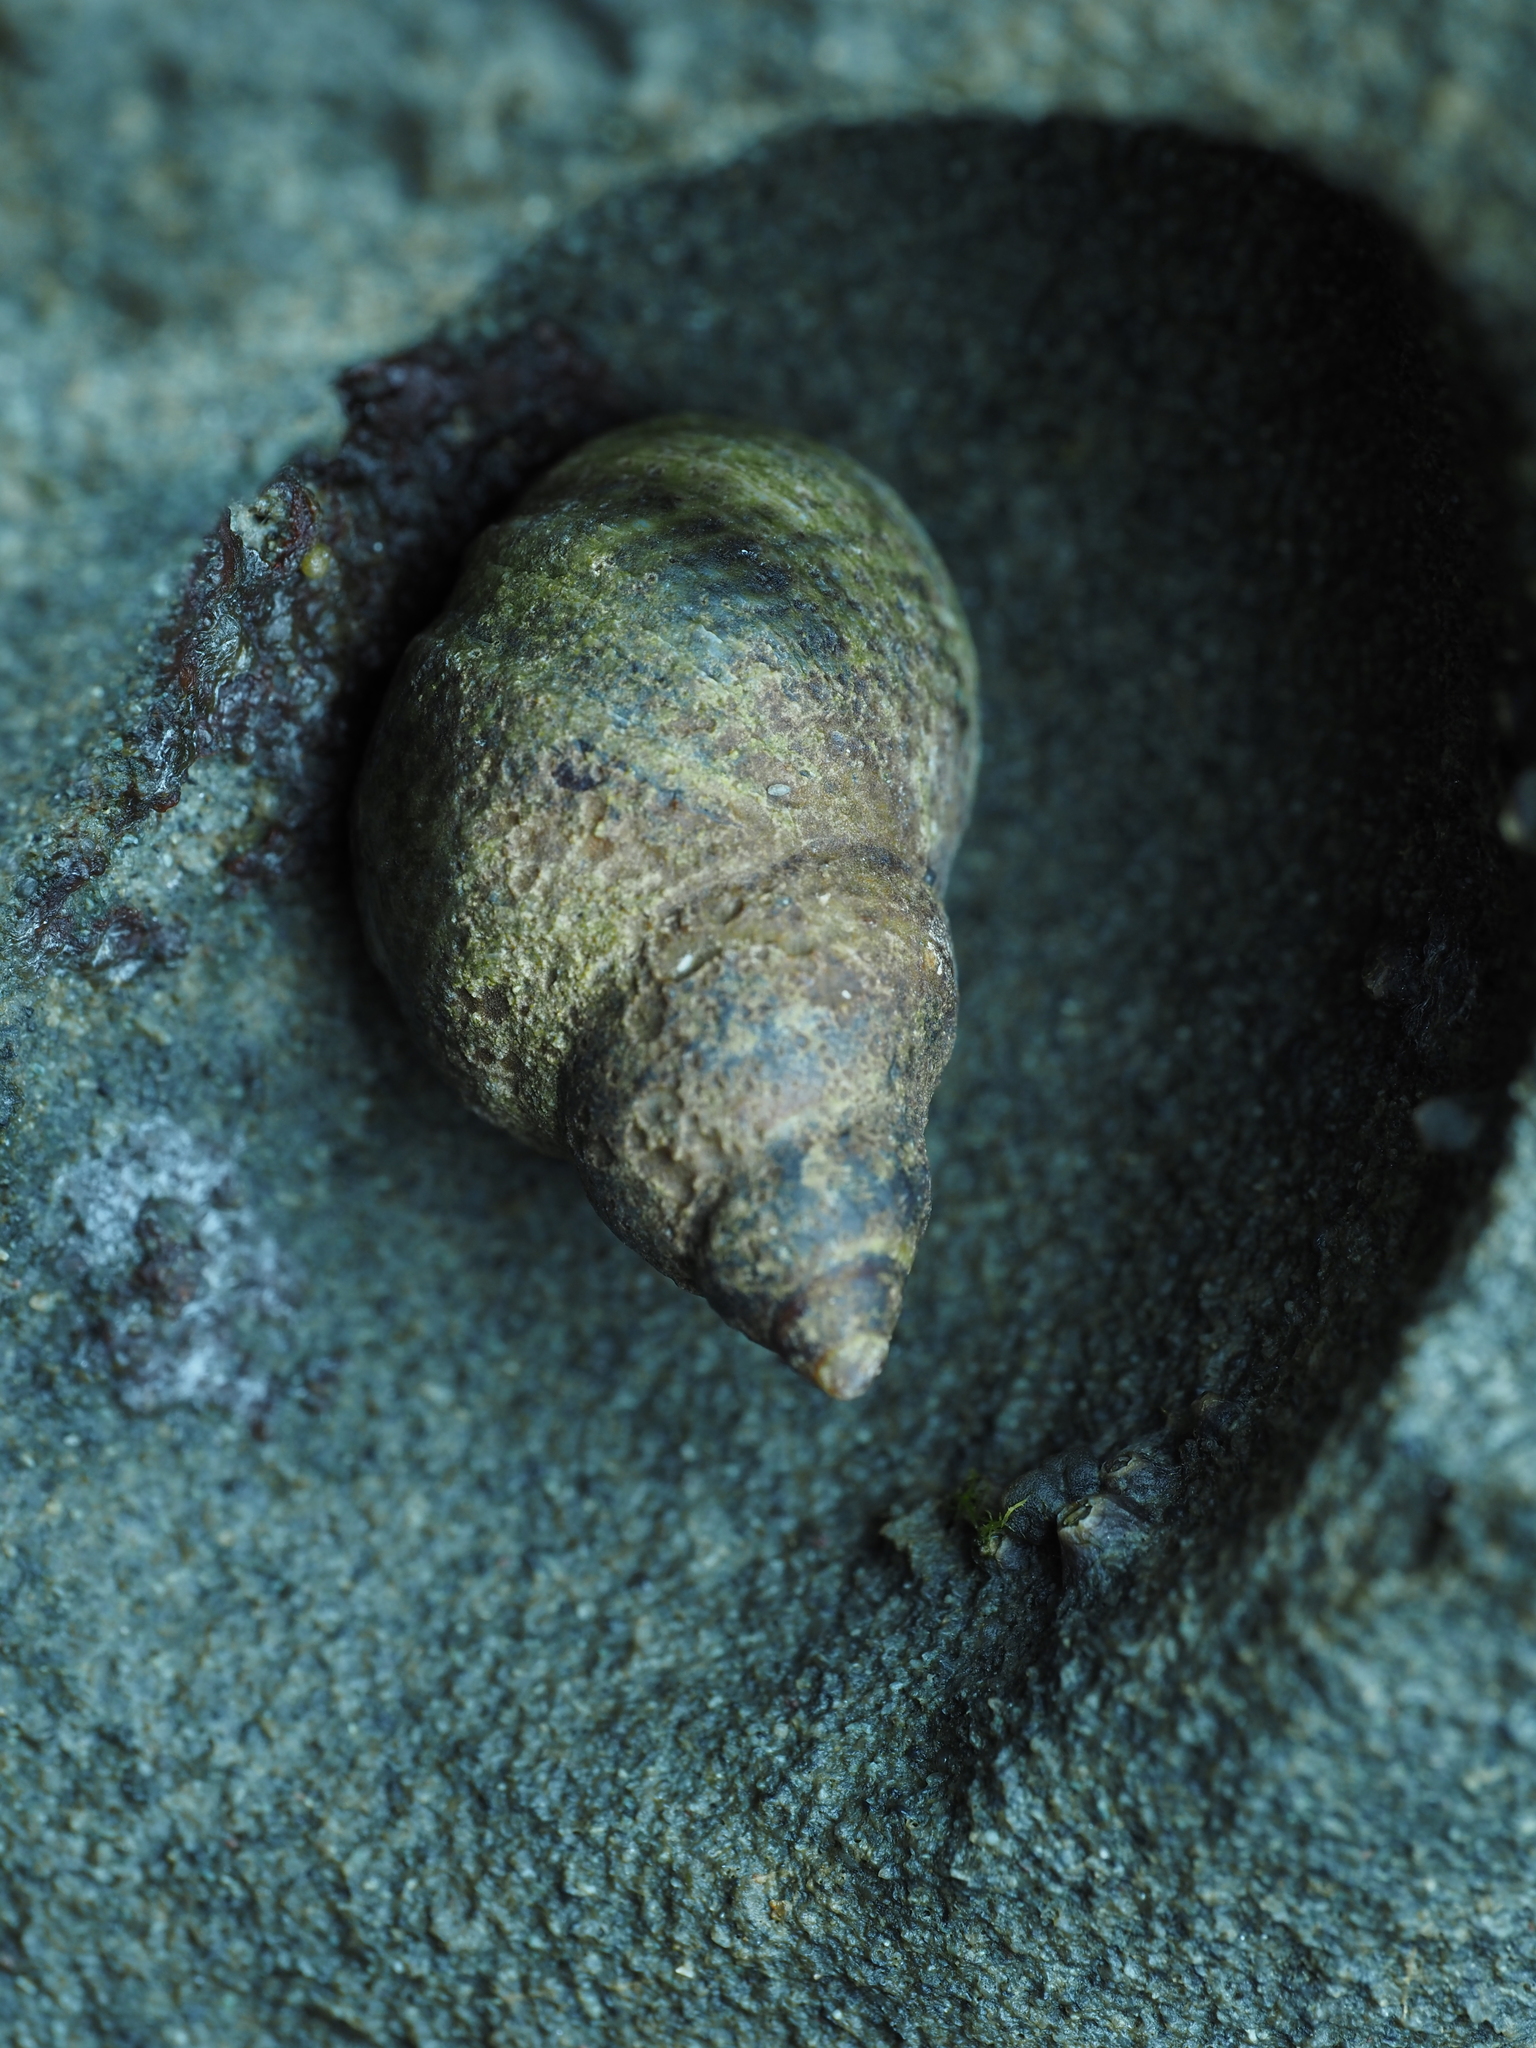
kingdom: Animalia
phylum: Mollusca
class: Gastropoda
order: Littorinimorpha
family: Littorinidae
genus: Austrolittorina
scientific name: Austrolittorina cincta
